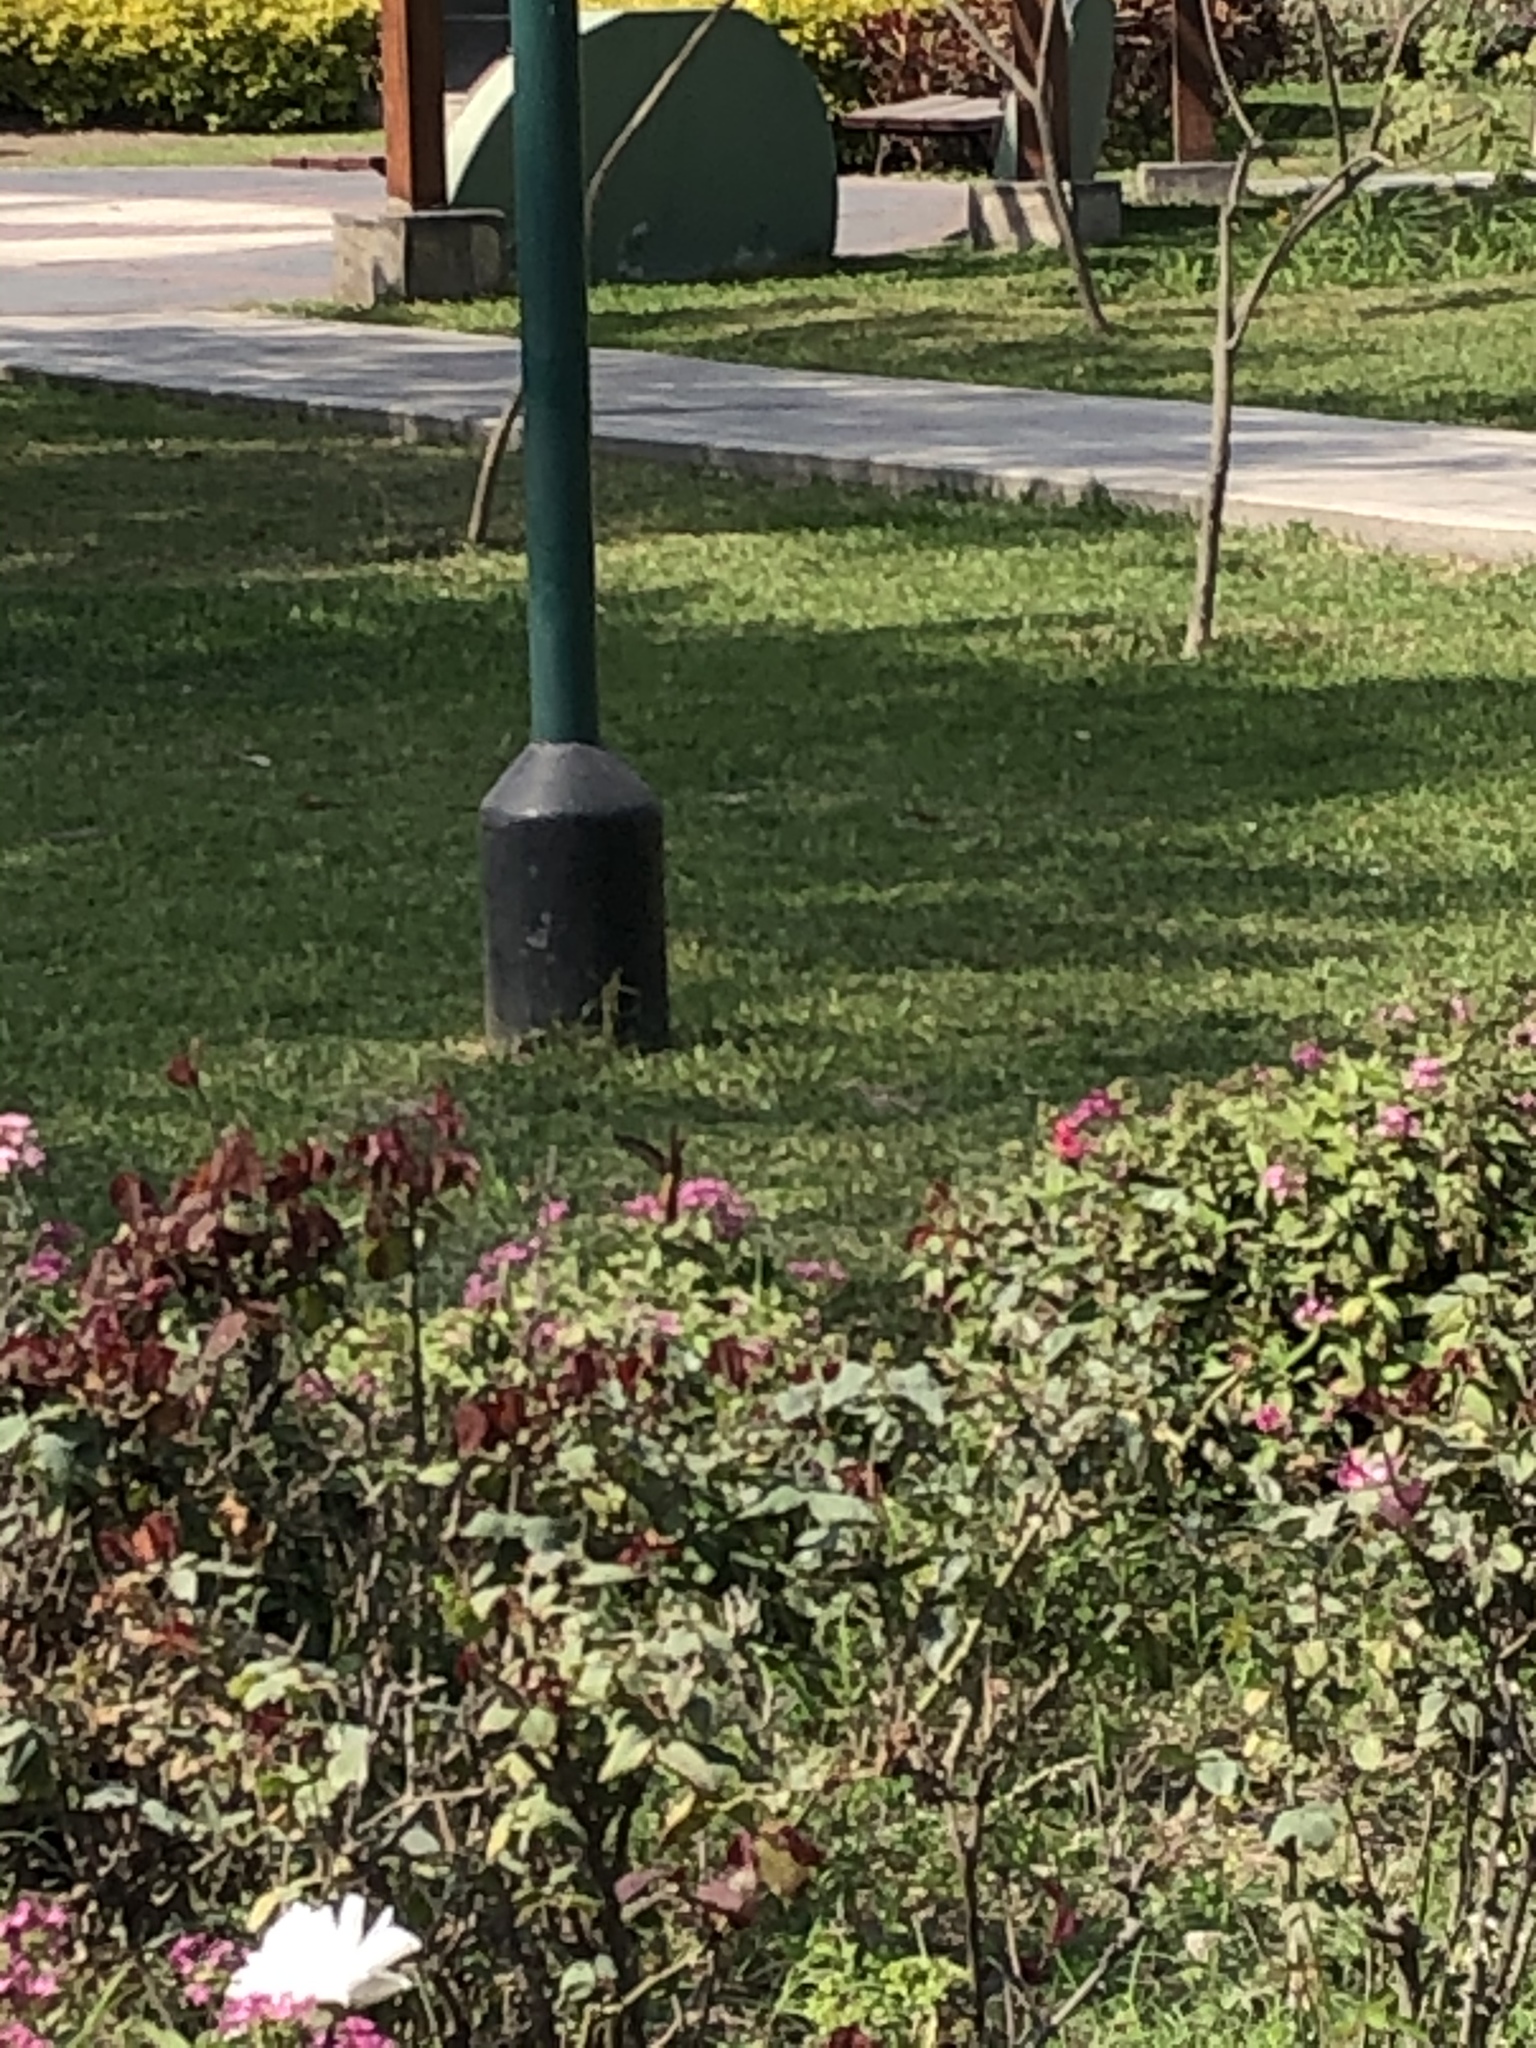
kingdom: Animalia
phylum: Chordata
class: Aves
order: Apodiformes
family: Trochilidae
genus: Amazilis
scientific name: Amazilis amazilia
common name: Amazilia hummingbird
